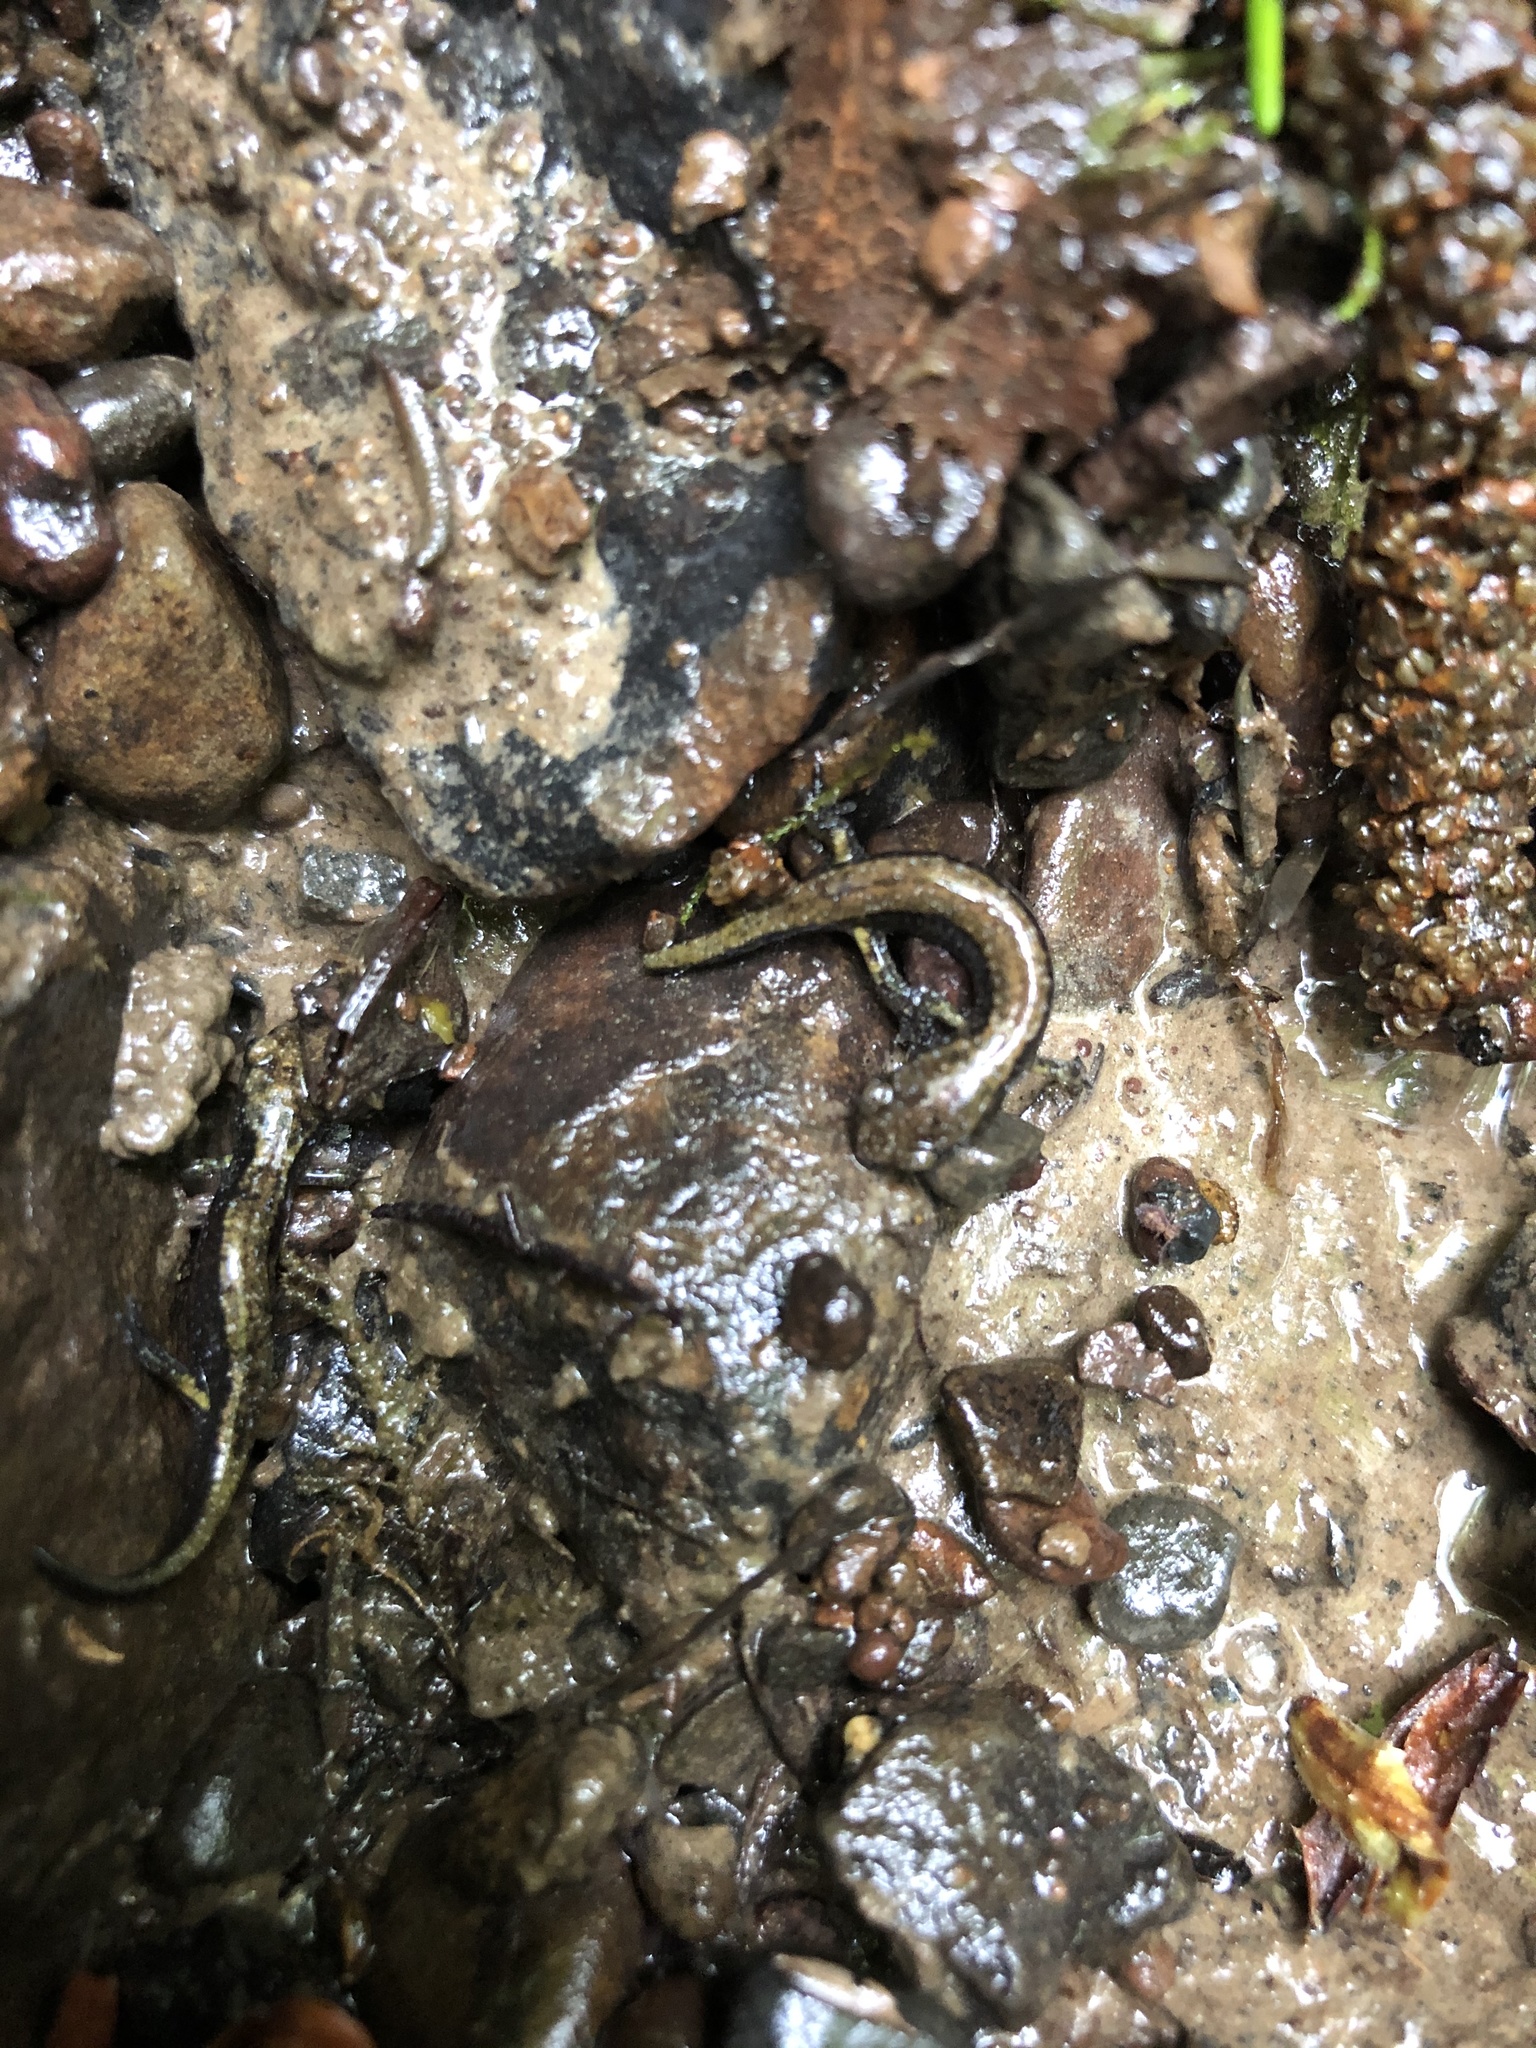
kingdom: Animalia
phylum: Chordata
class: Amphibia
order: Caudata
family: Plethodontidae
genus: Plethodon
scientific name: Plethodon dunni
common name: Dunn's salamander
